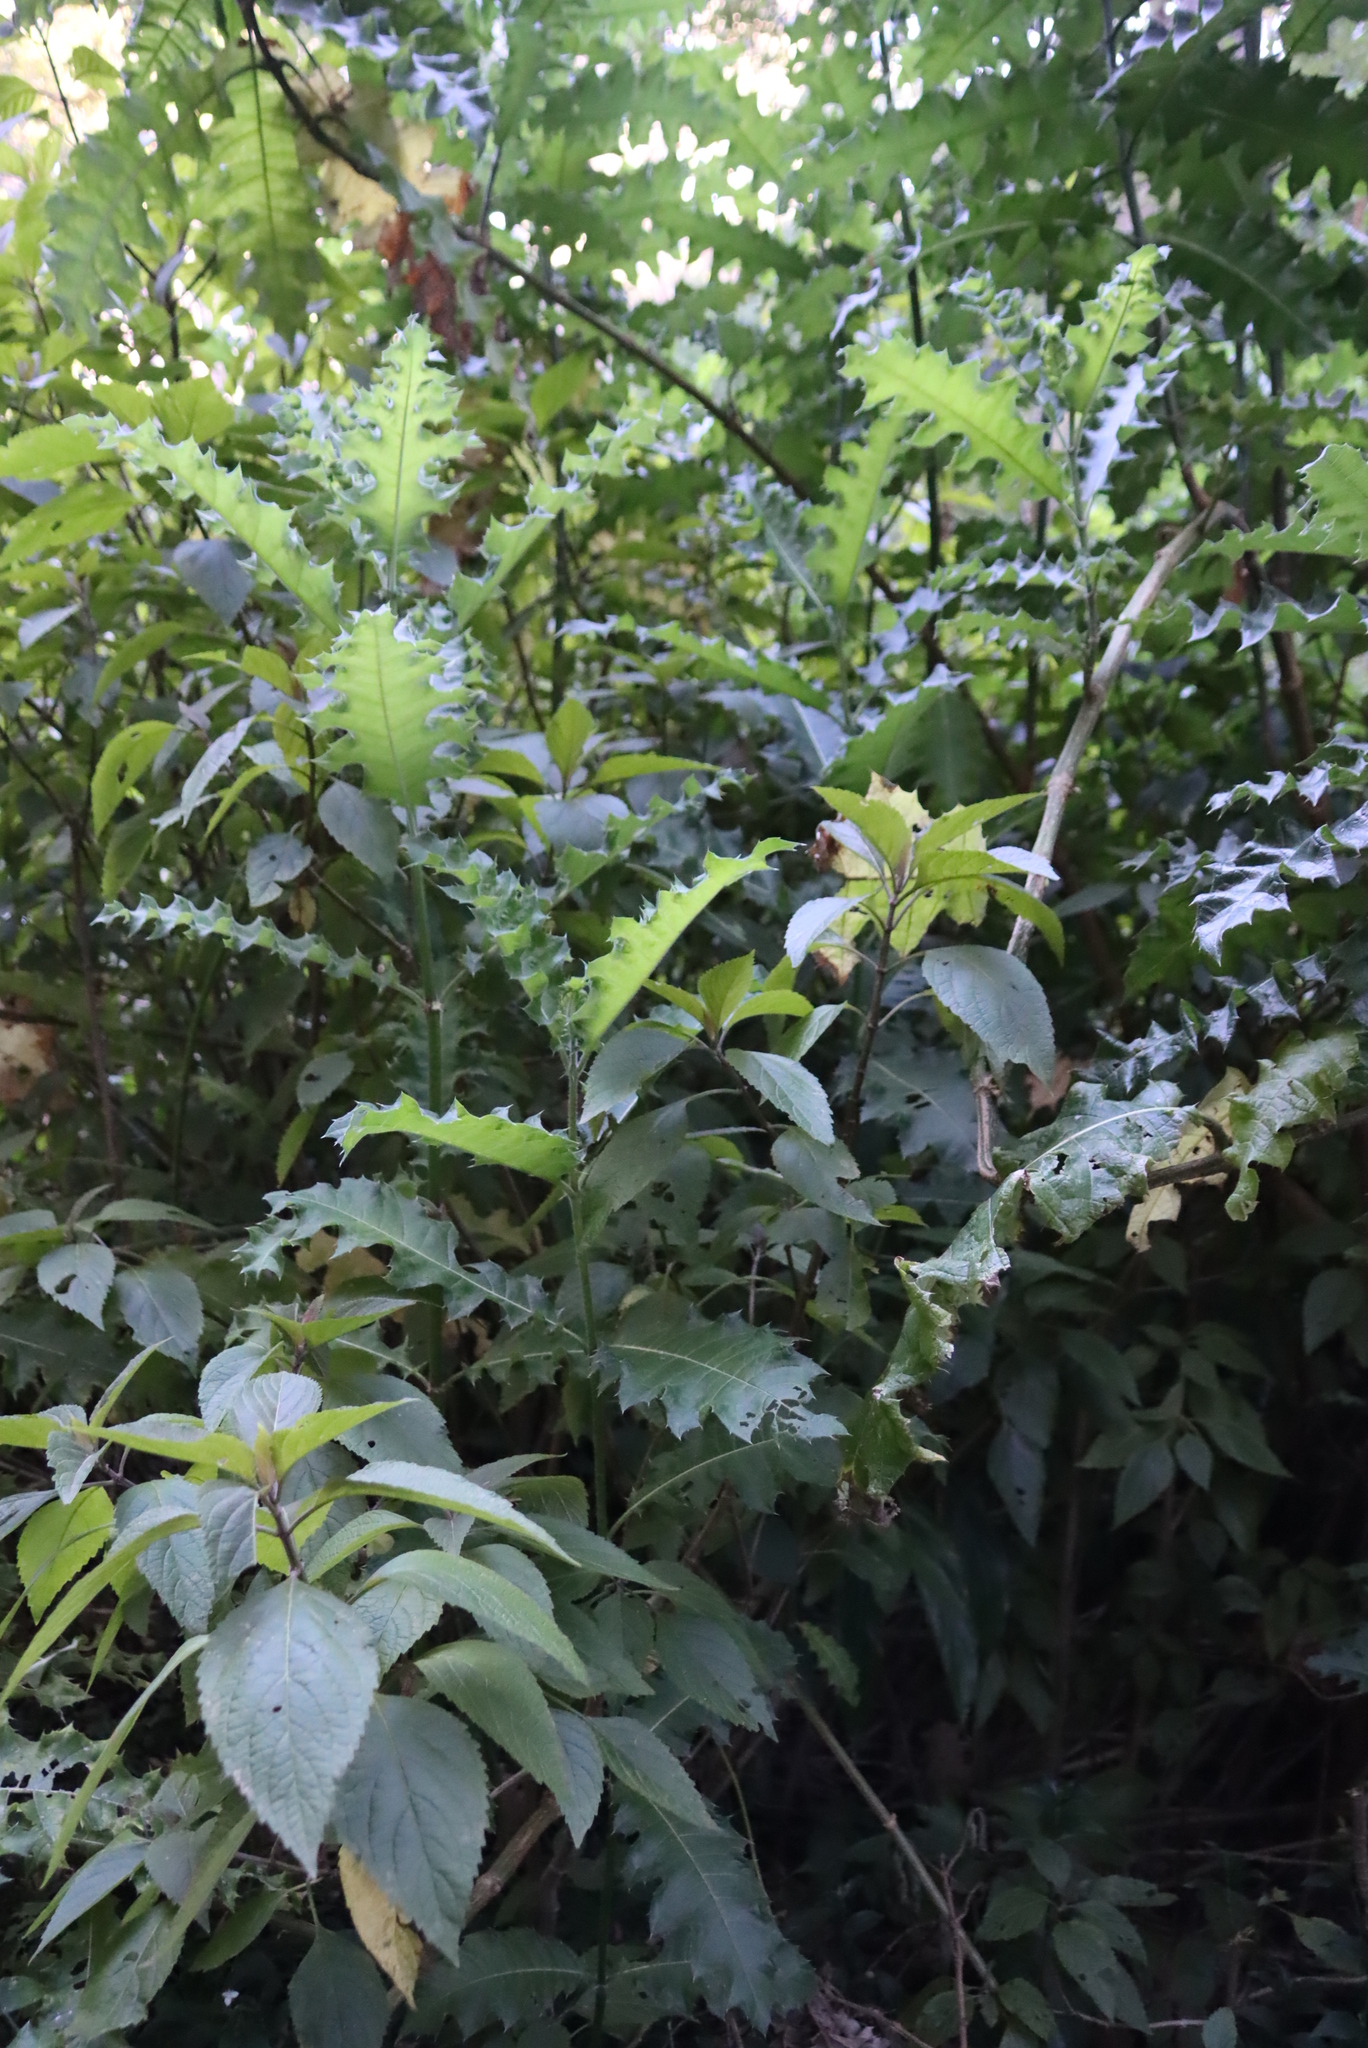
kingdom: Plantae
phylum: Tracheophyta
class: Magnoliopsida
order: Lamiales
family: Acanthaceae
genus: Acanthus
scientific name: Acanthus polystachyus
